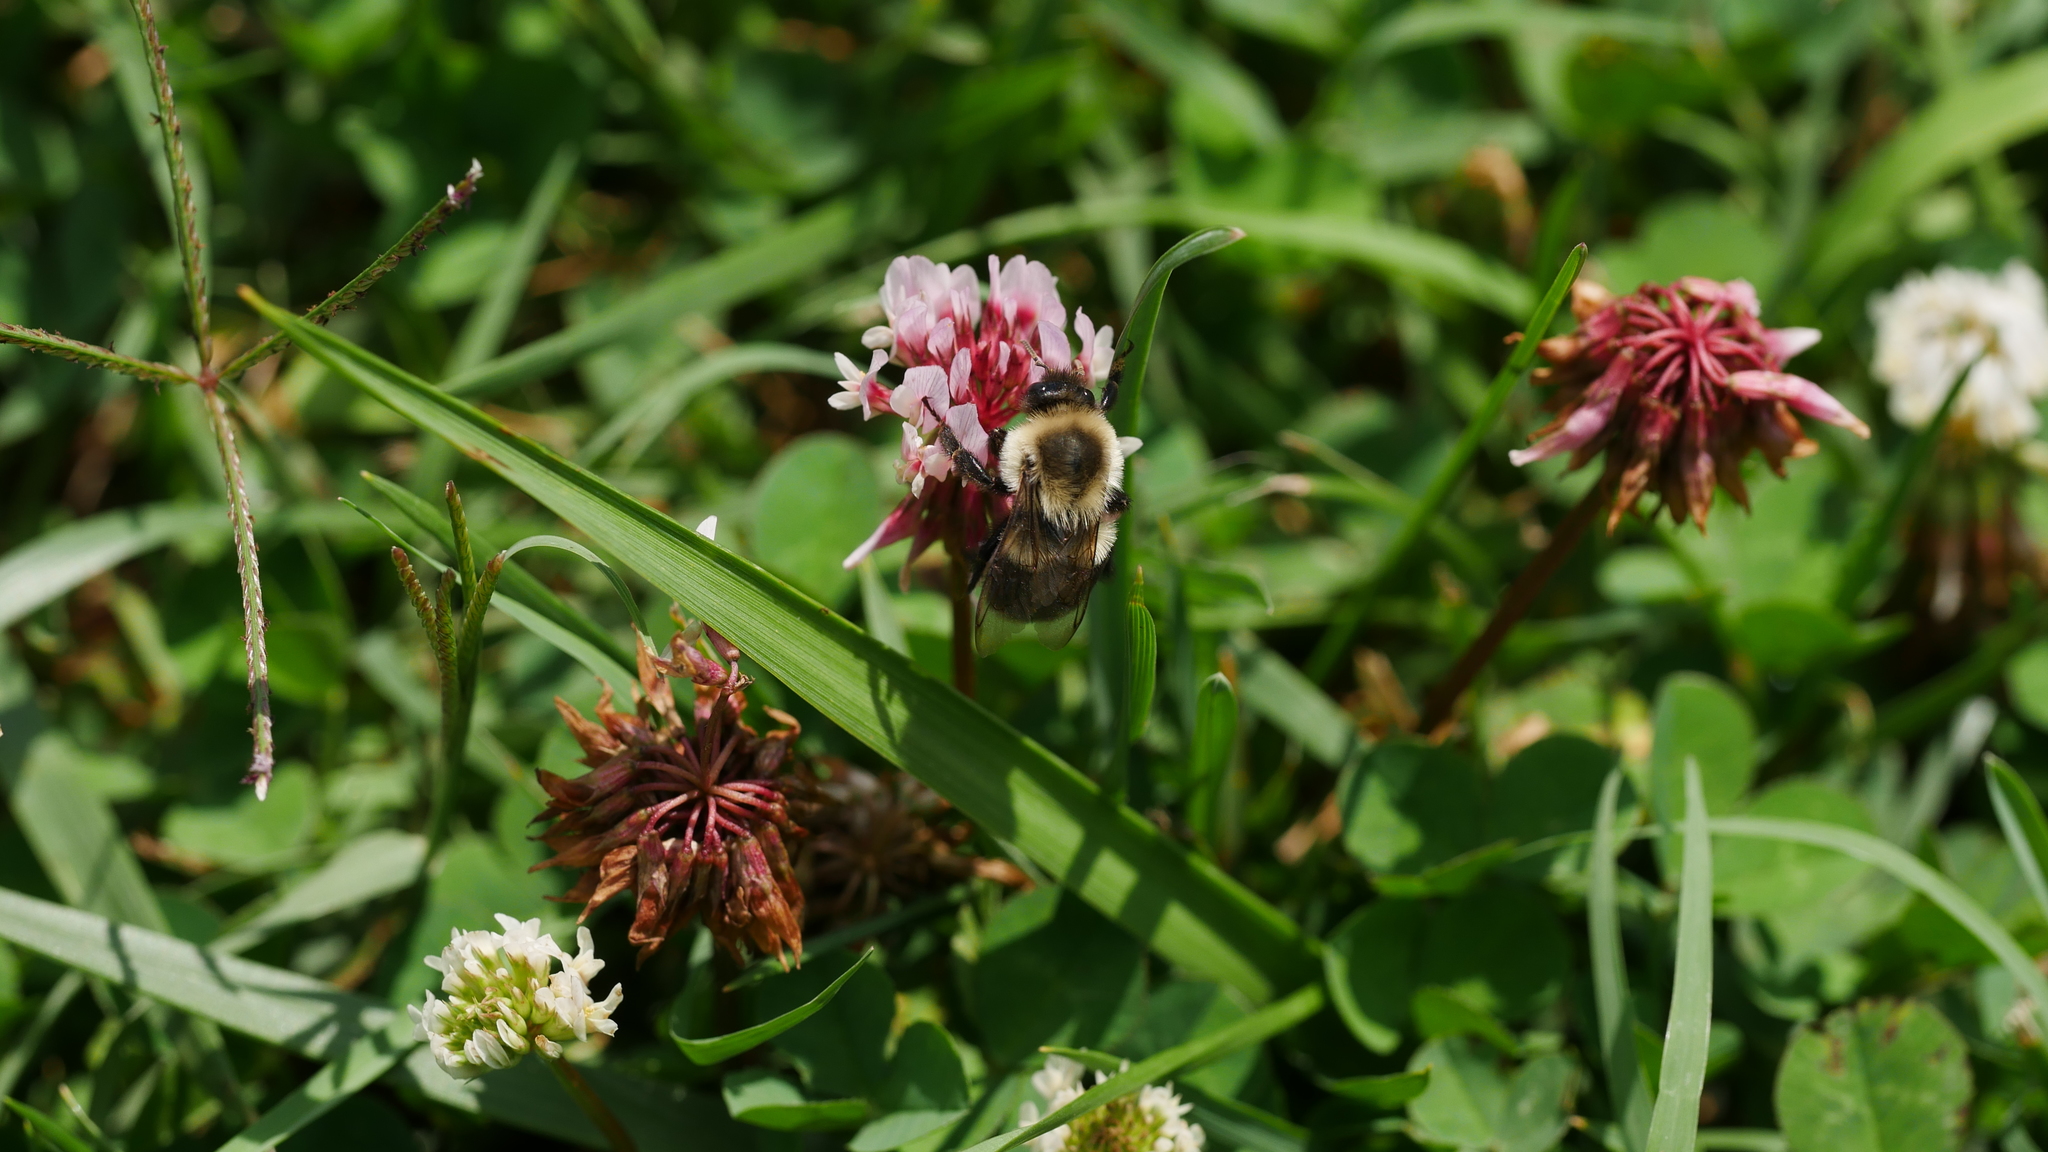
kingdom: Animalia
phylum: Arthropoda
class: Insecta
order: Hymenoptera
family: Apidae
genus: Bombus
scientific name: Bombus impatiens
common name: Common eastern bumble bee
